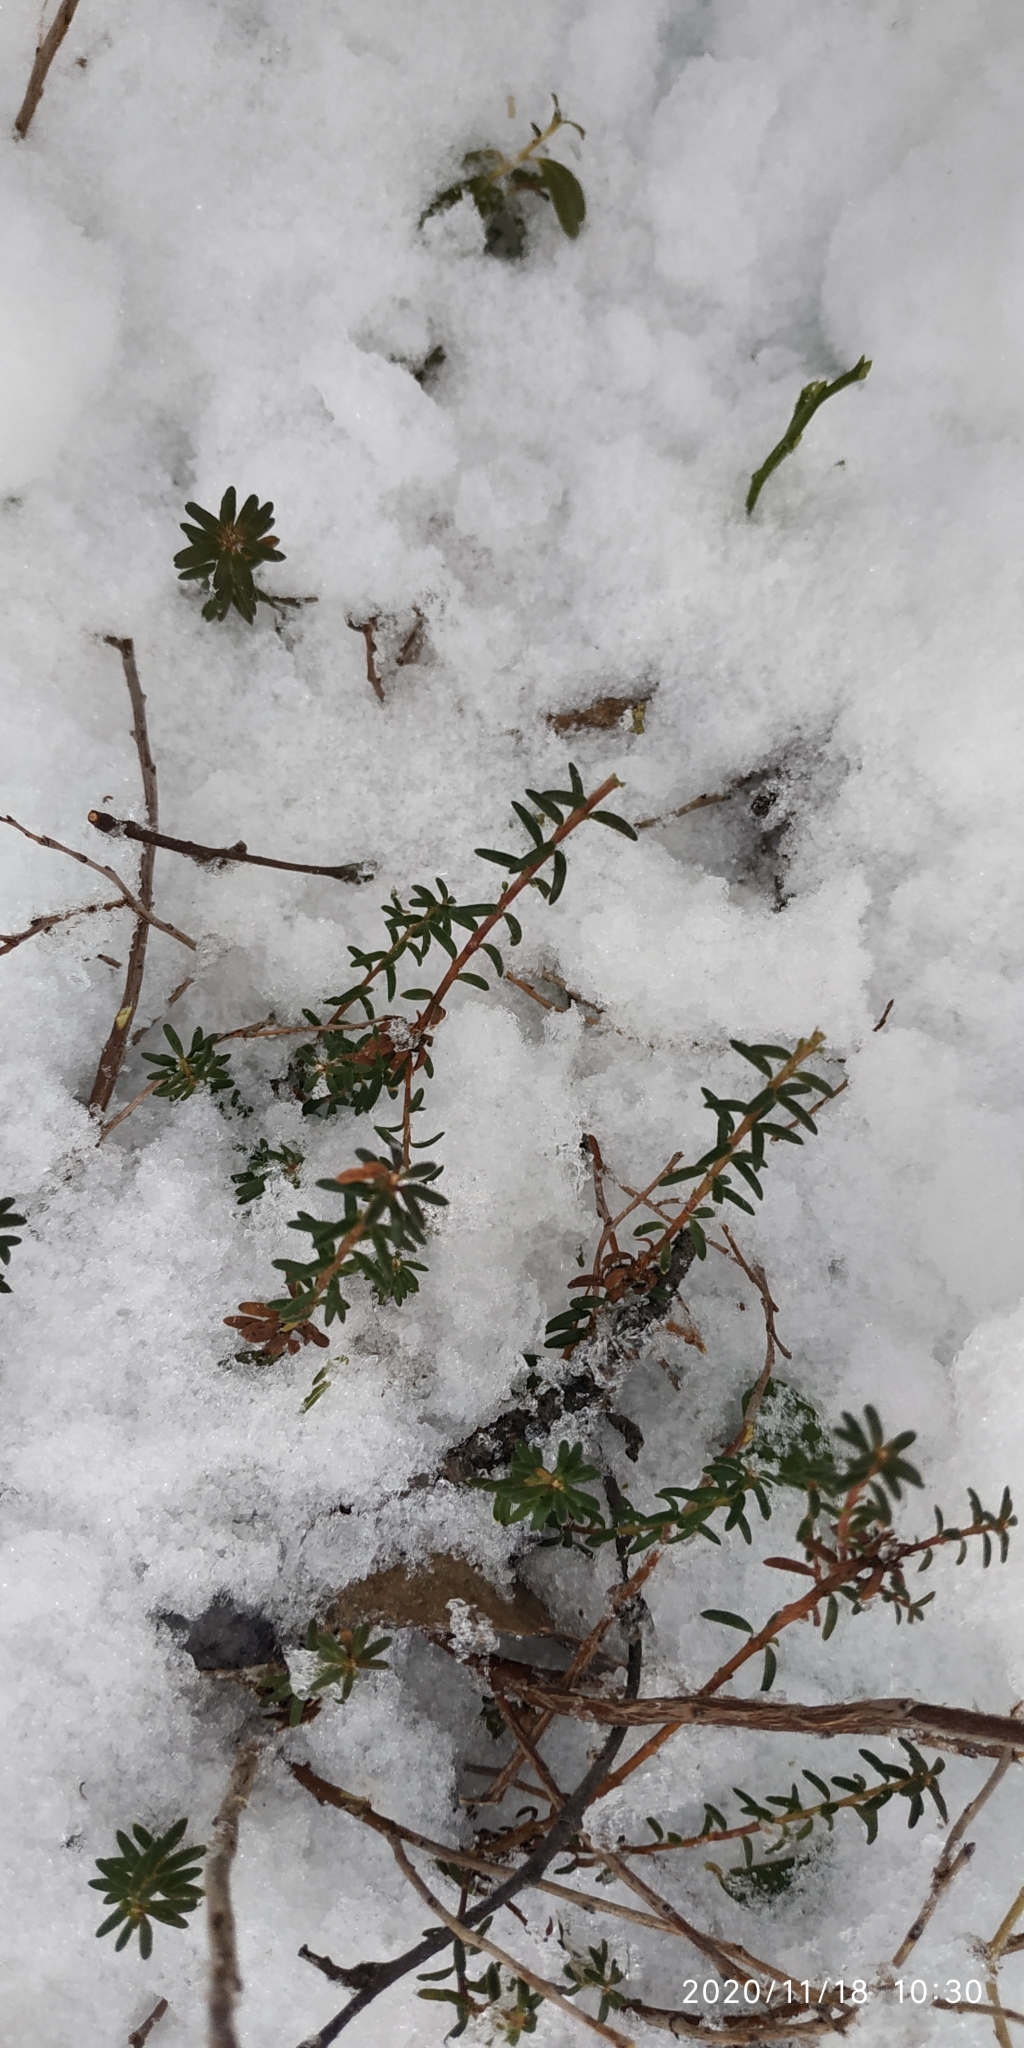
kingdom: Plantae
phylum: Tracheophyta
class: Magnoliopsida
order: Ericales
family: Ericaceae
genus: Empetrum
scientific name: Empetrum nigrum
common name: Black crowberry
